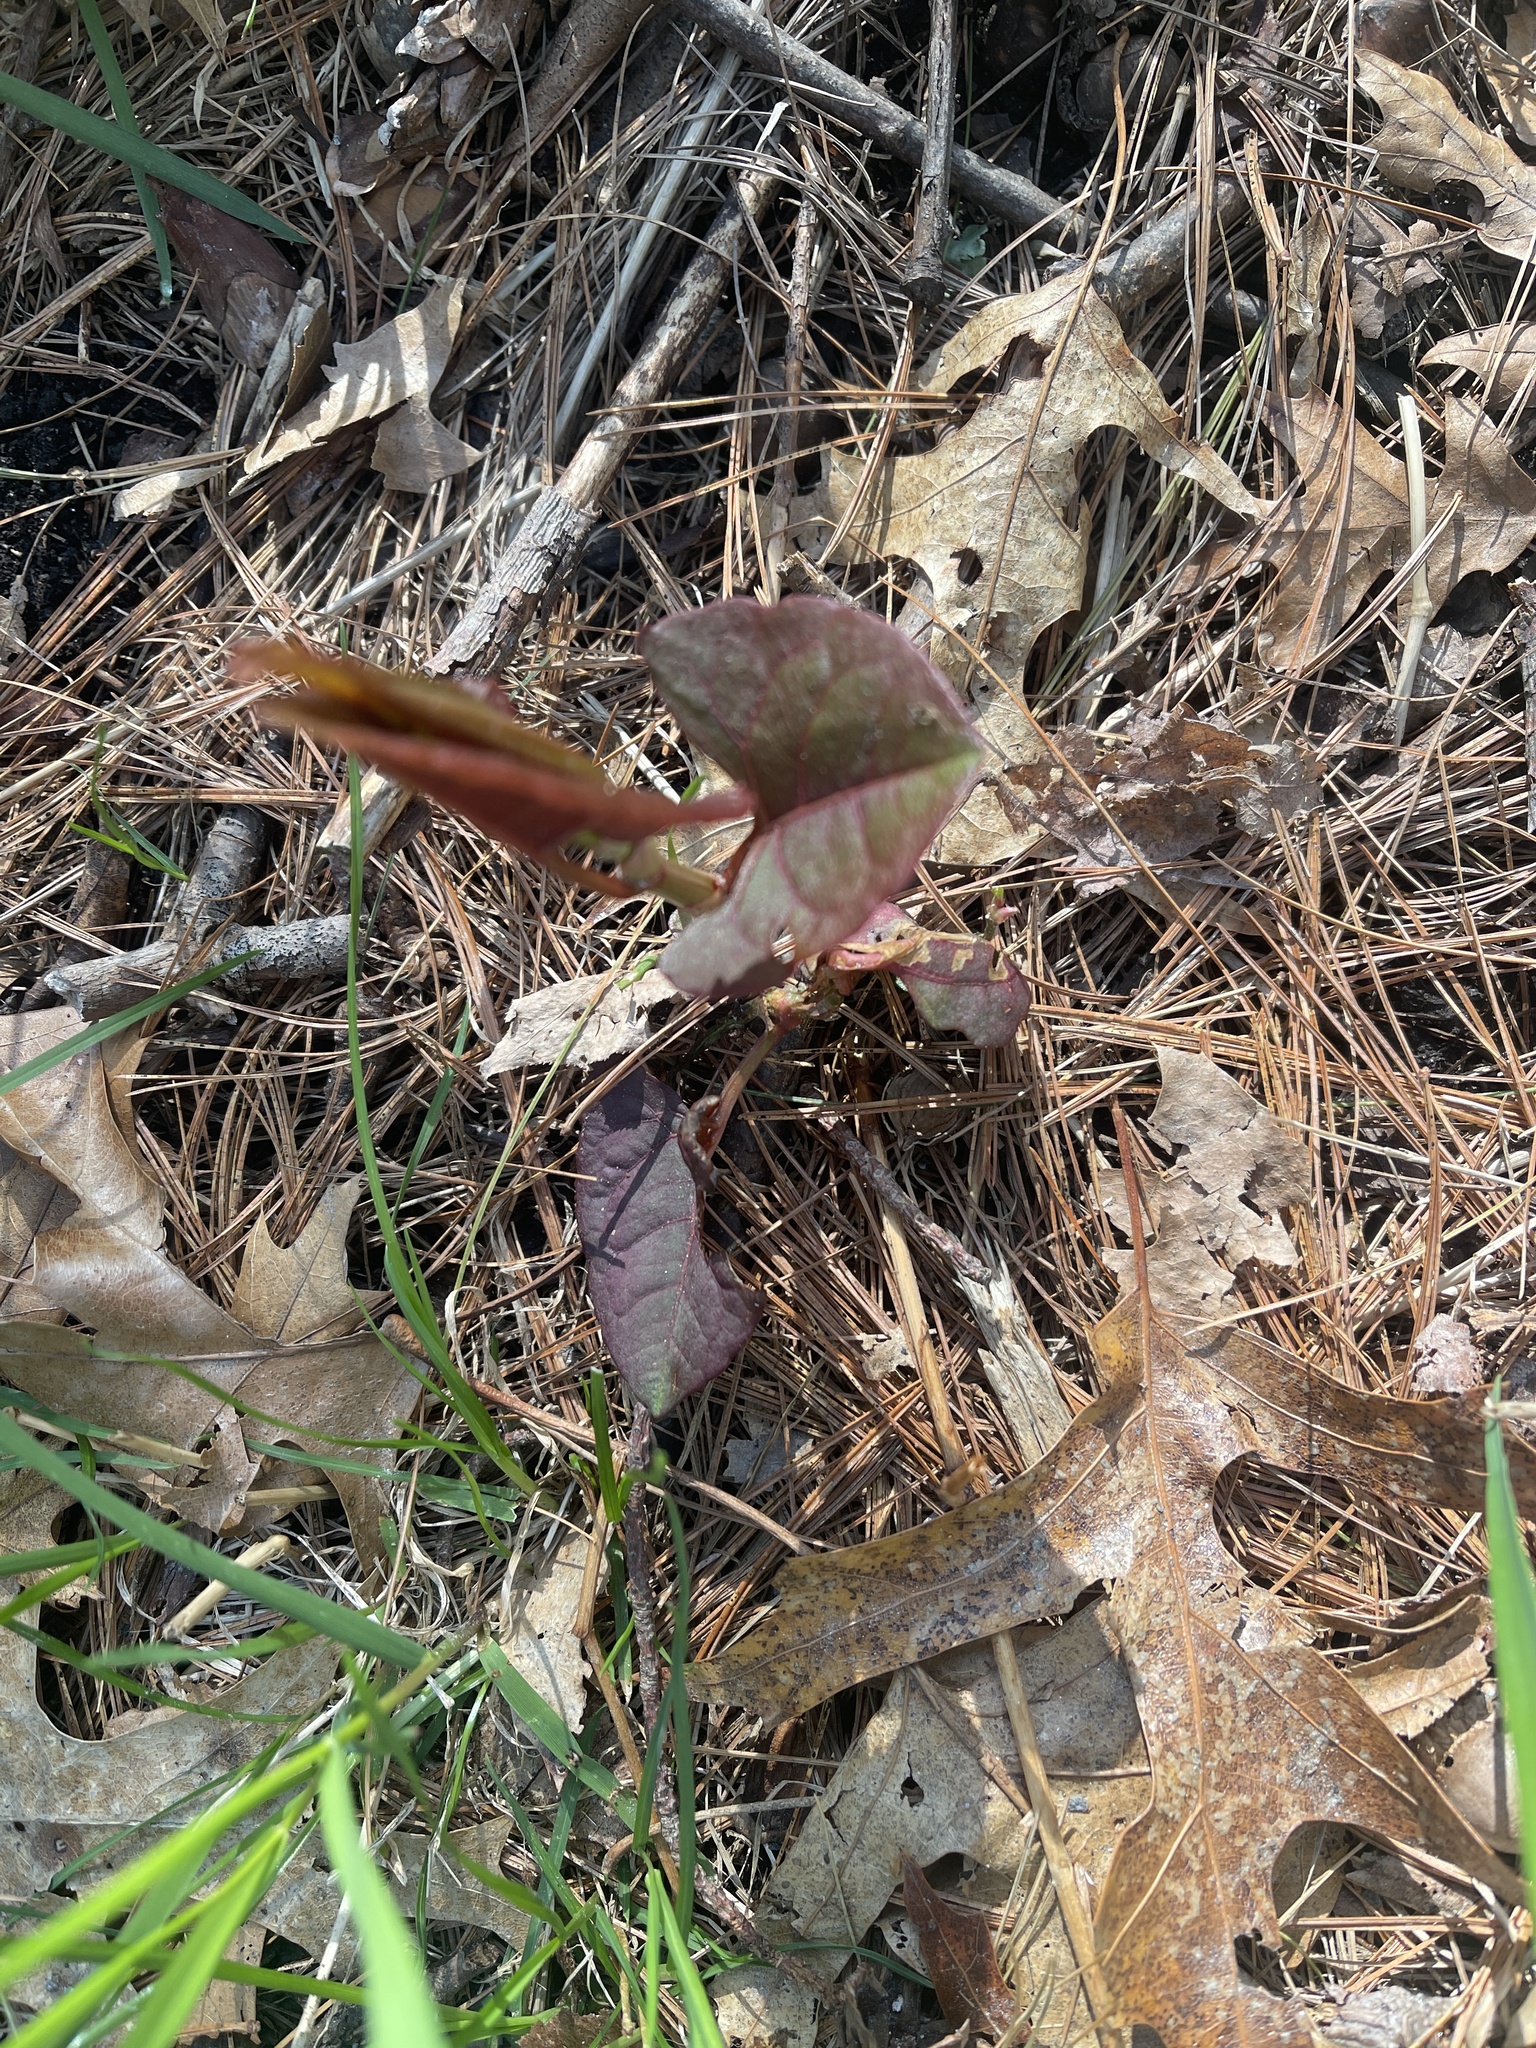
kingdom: Plantae
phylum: Tracheophyta
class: Magnoliopsida
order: Caryophyllales
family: Polygonaceae
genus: Reynoutria
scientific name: Reynoutria japonica
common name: Japanese knotweed
